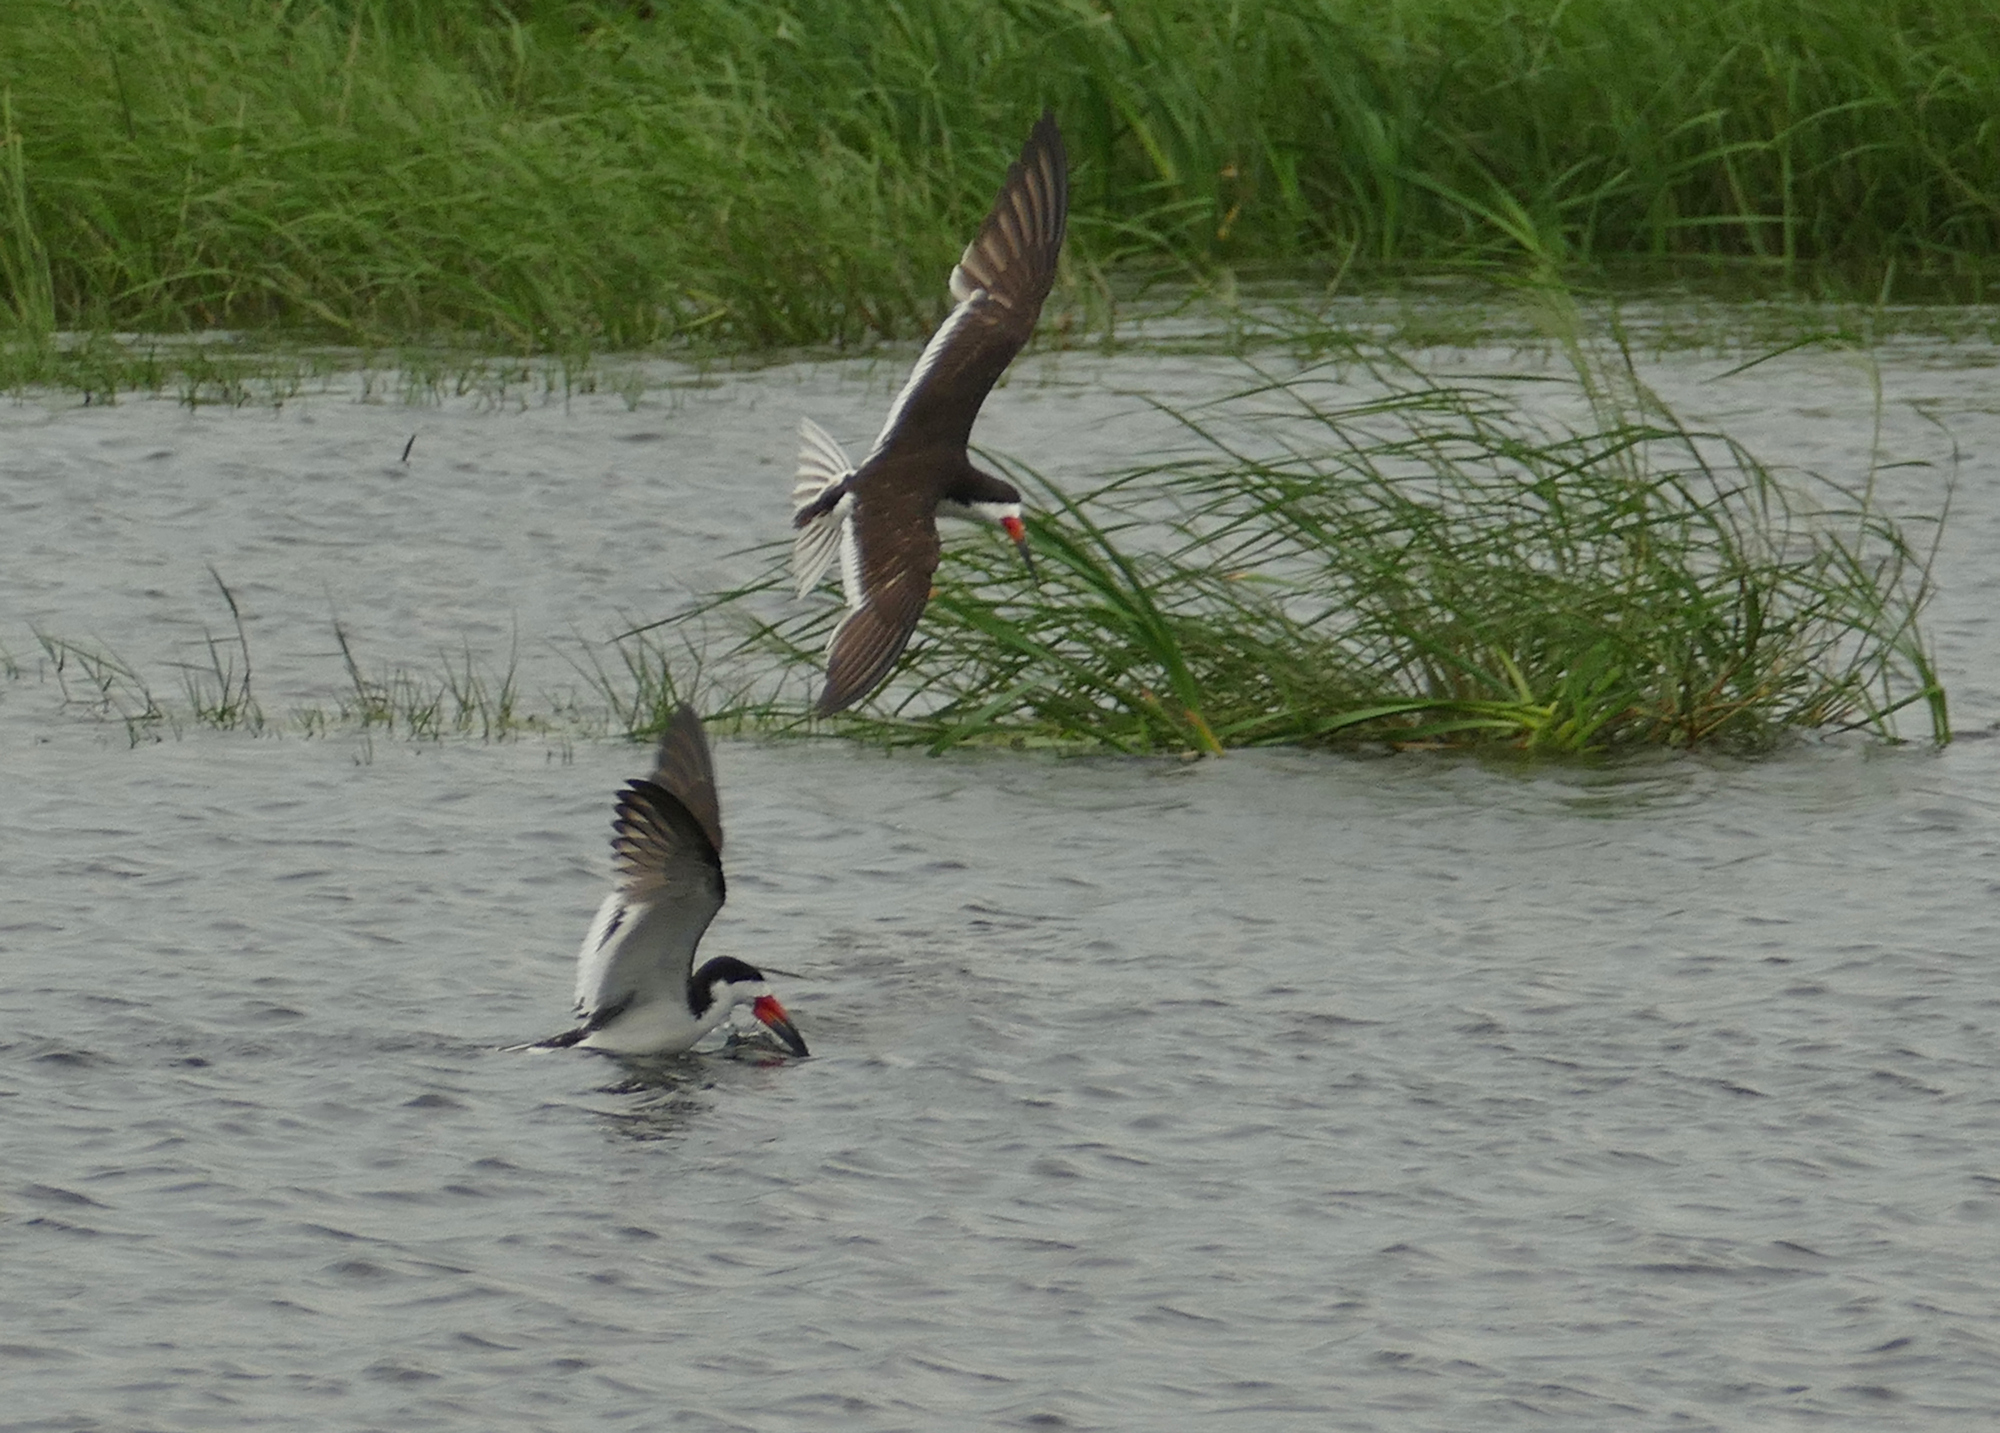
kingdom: Animalia
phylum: Chordata
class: Aves
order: Charadriiformes
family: Laridae
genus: Rynchops
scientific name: Rynchops niger
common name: Black skimmer
